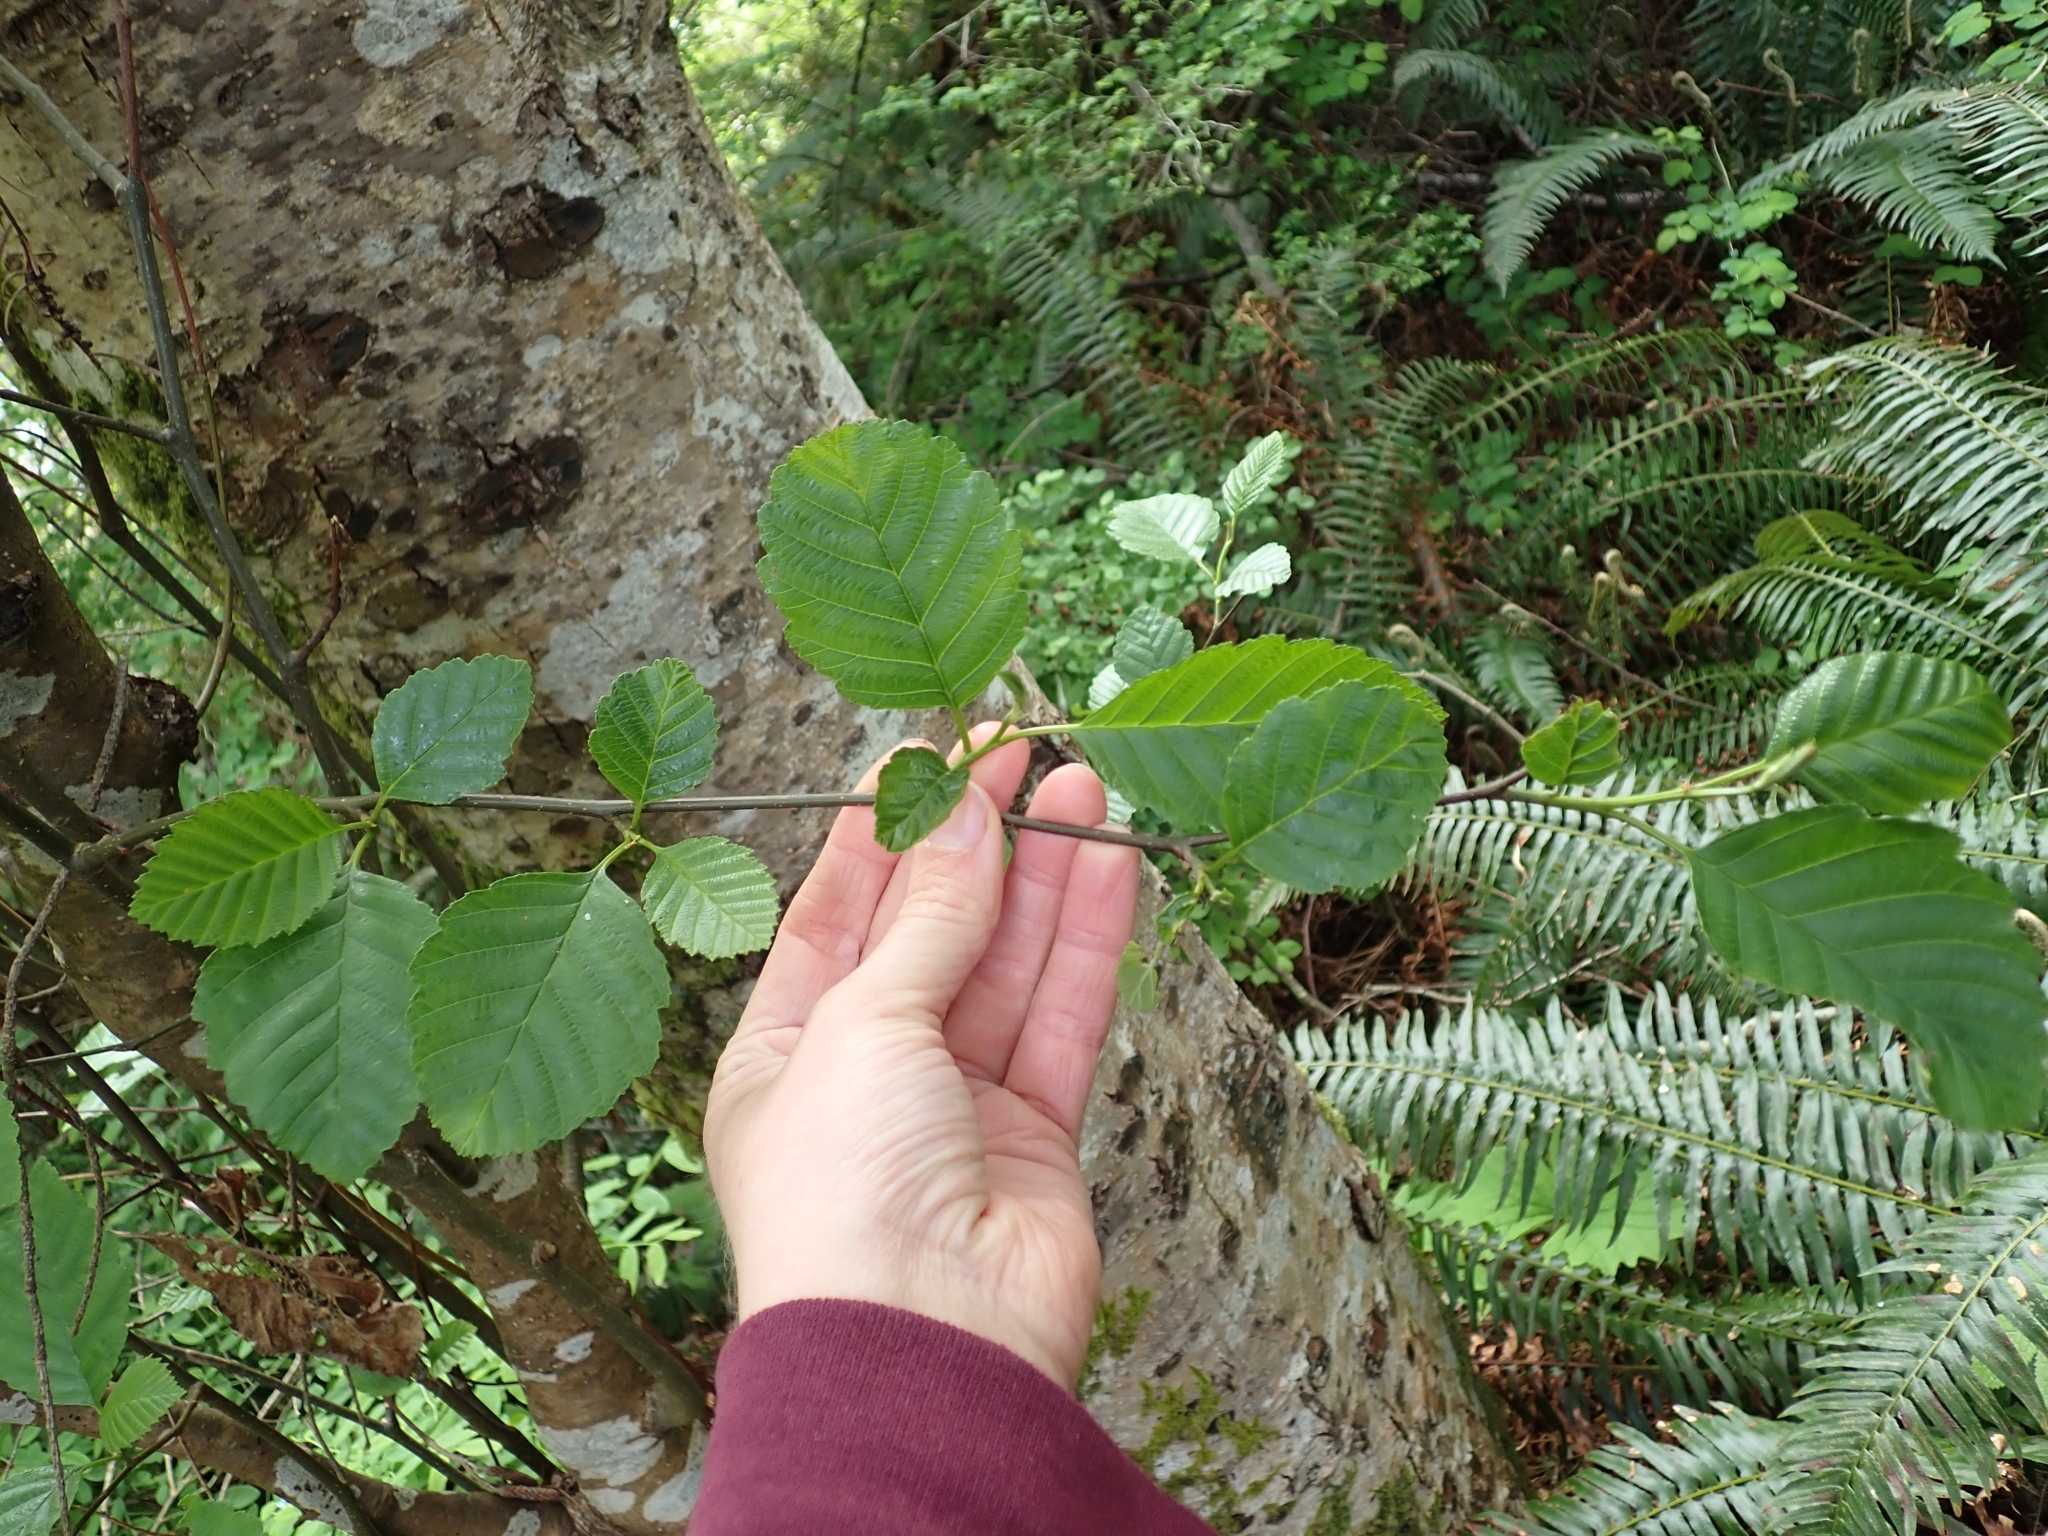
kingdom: Plantae
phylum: Tracheophyta
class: Magnoliopsida
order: Fagales
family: Betulaceae
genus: Alnus
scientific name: Alnus rubra
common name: Red alder
